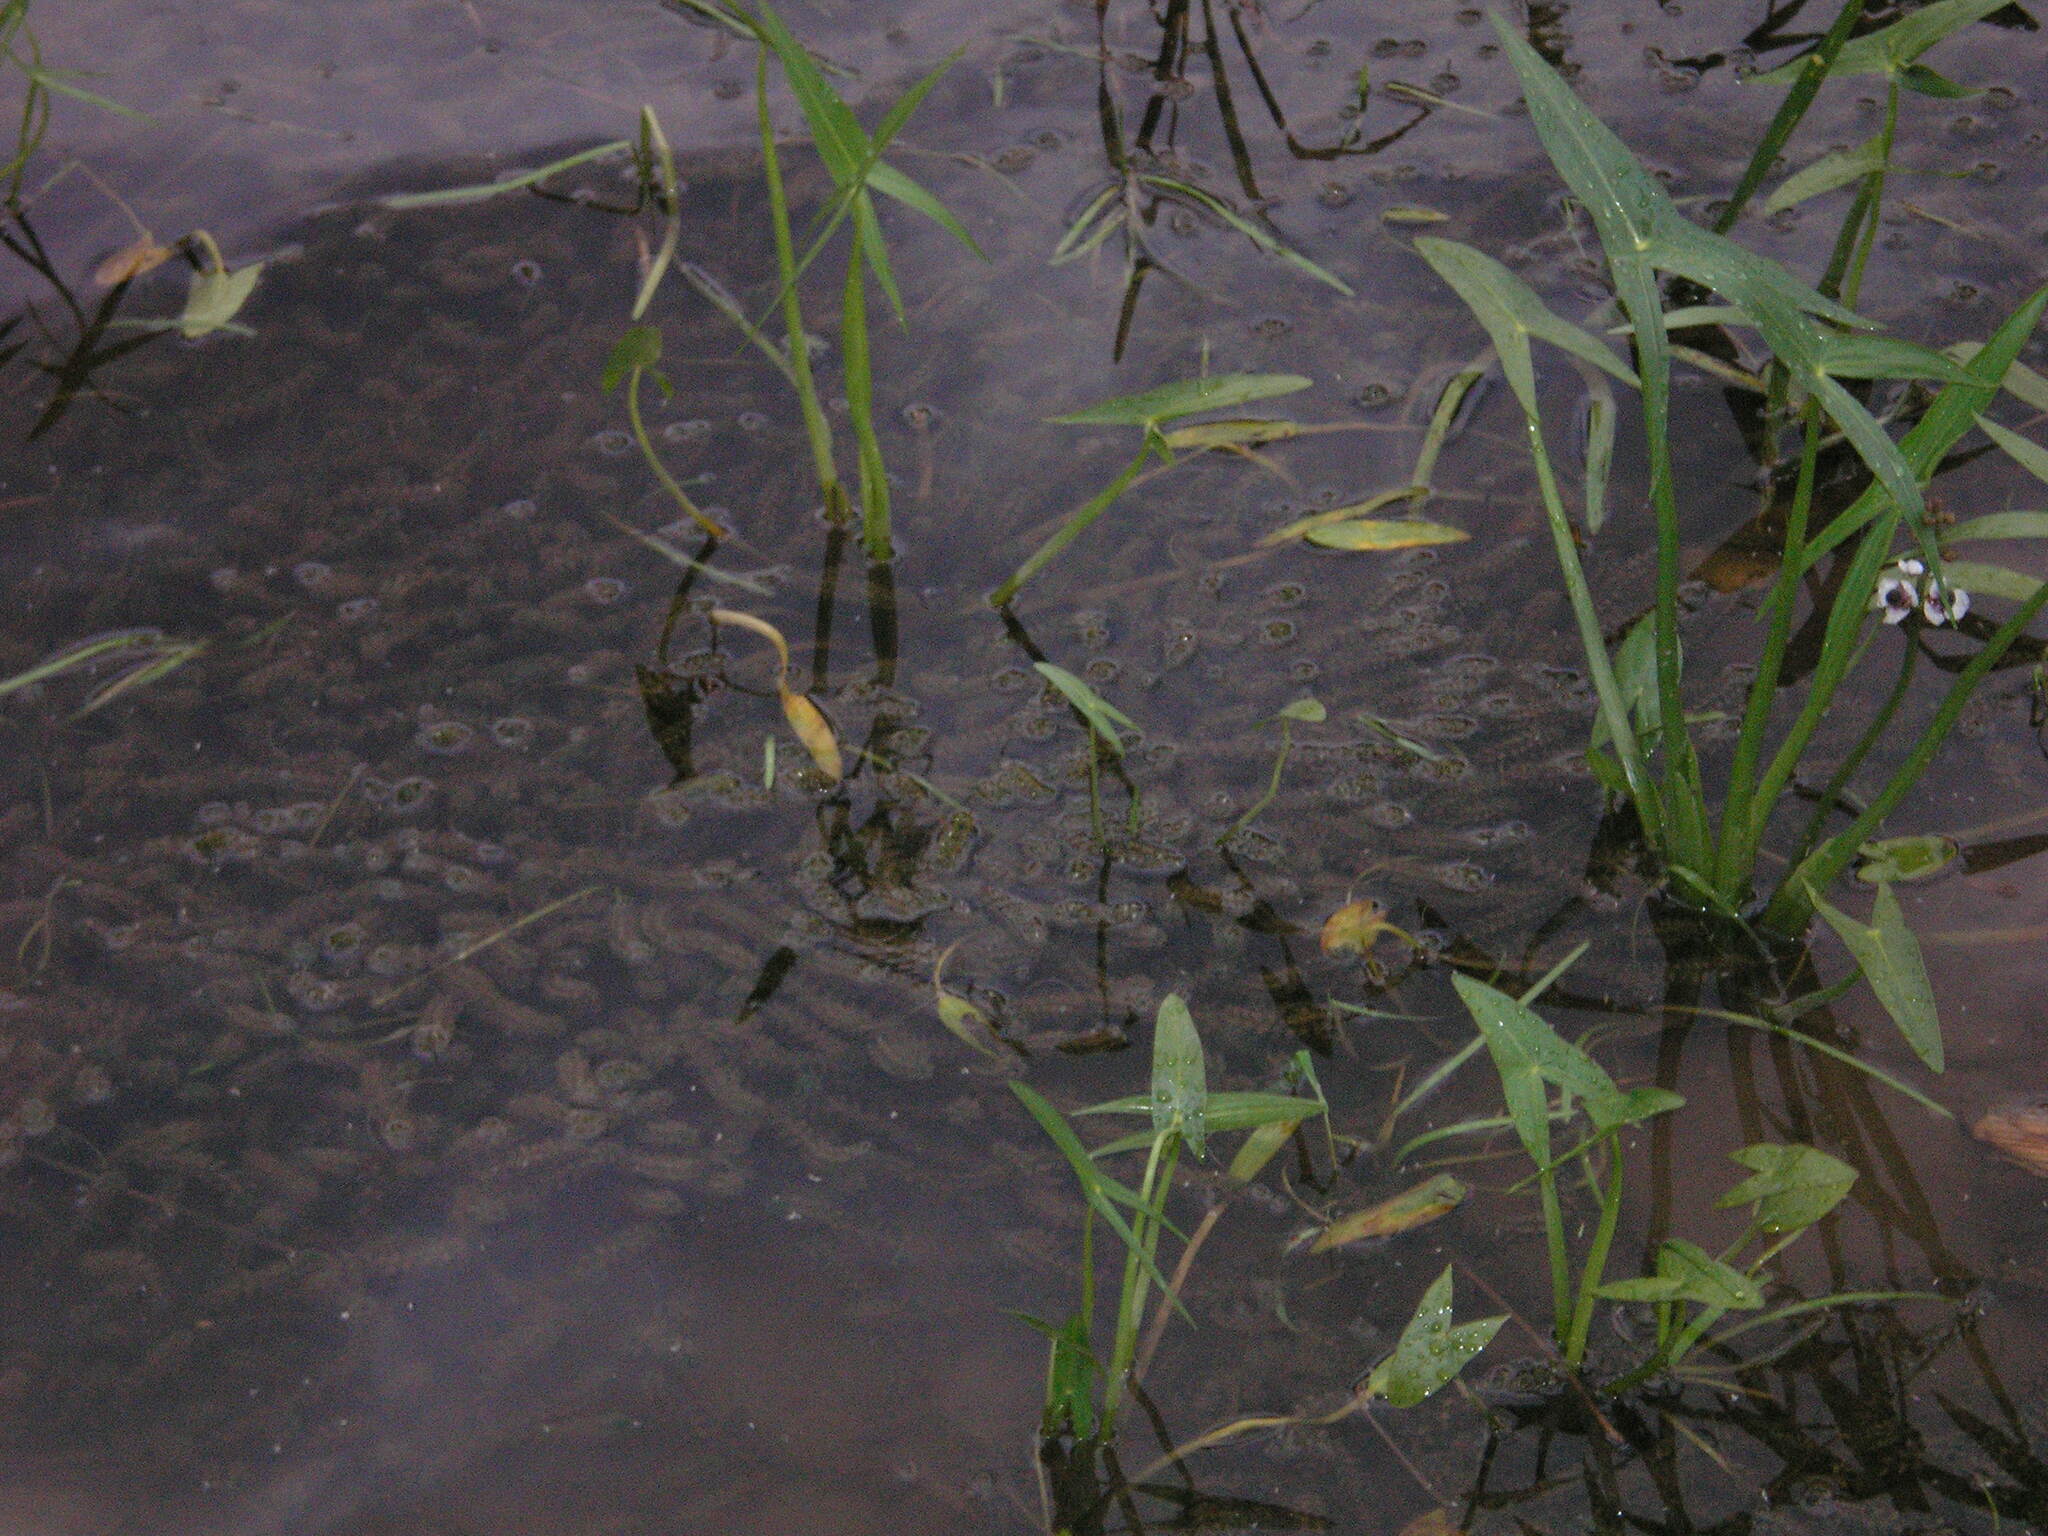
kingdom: Plantae
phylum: Tracheophyta
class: Liliopsida
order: Alismatales
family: Alismataceae
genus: Sagittaria
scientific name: Sagittaria sagittifolia
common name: Arrowhead
